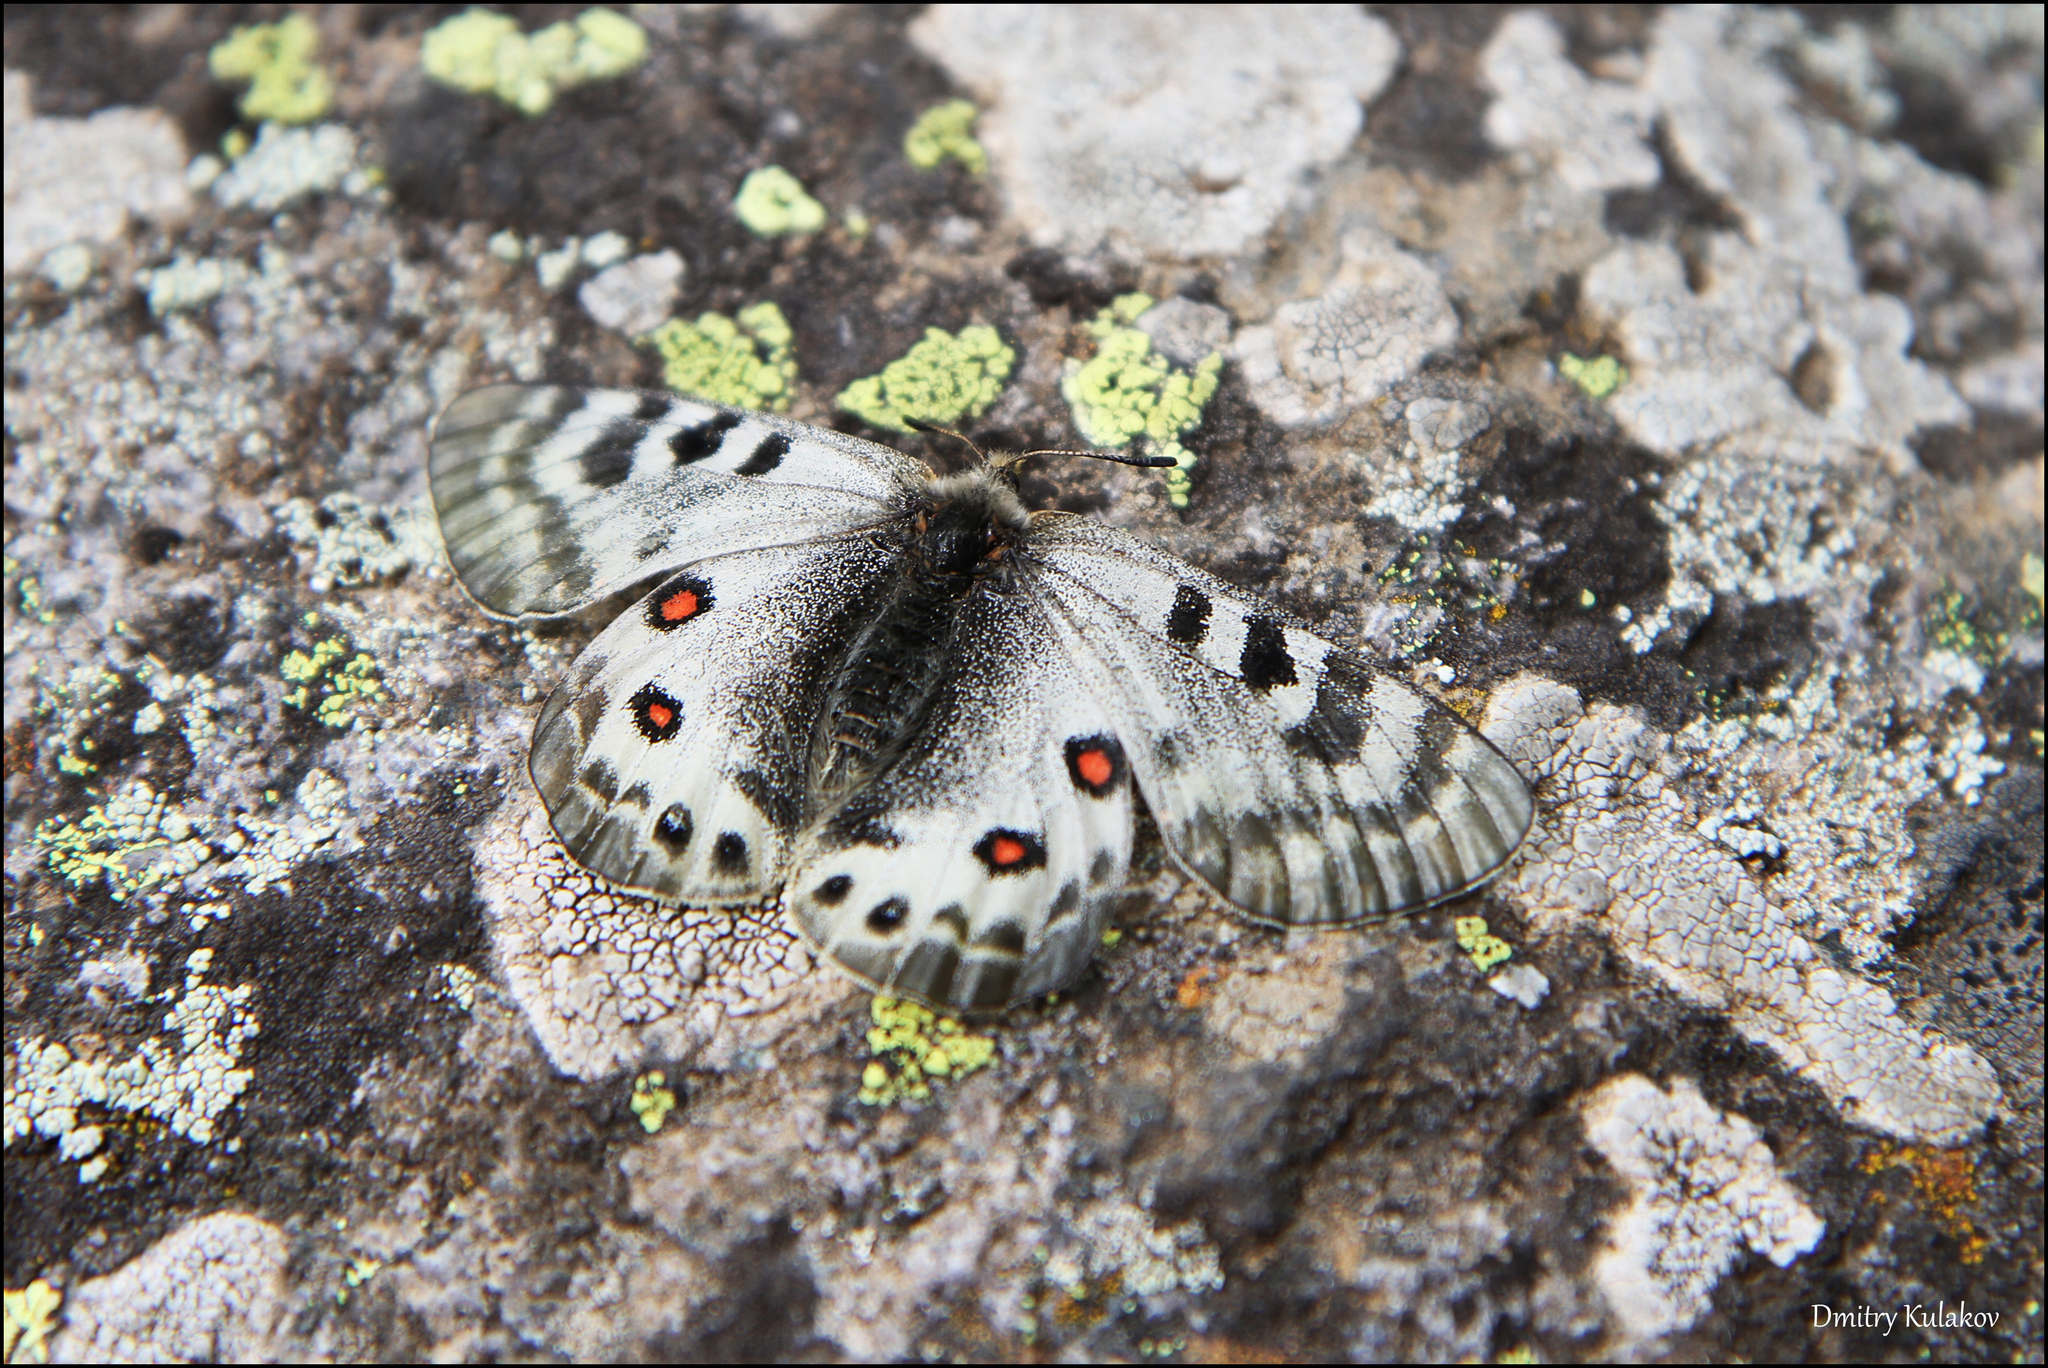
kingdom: Animalia
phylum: Arthropoda
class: Insecta
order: Lepidoptera
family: Papilionidae
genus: Parnassius
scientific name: Parnassius delphius
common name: Banded apollo
